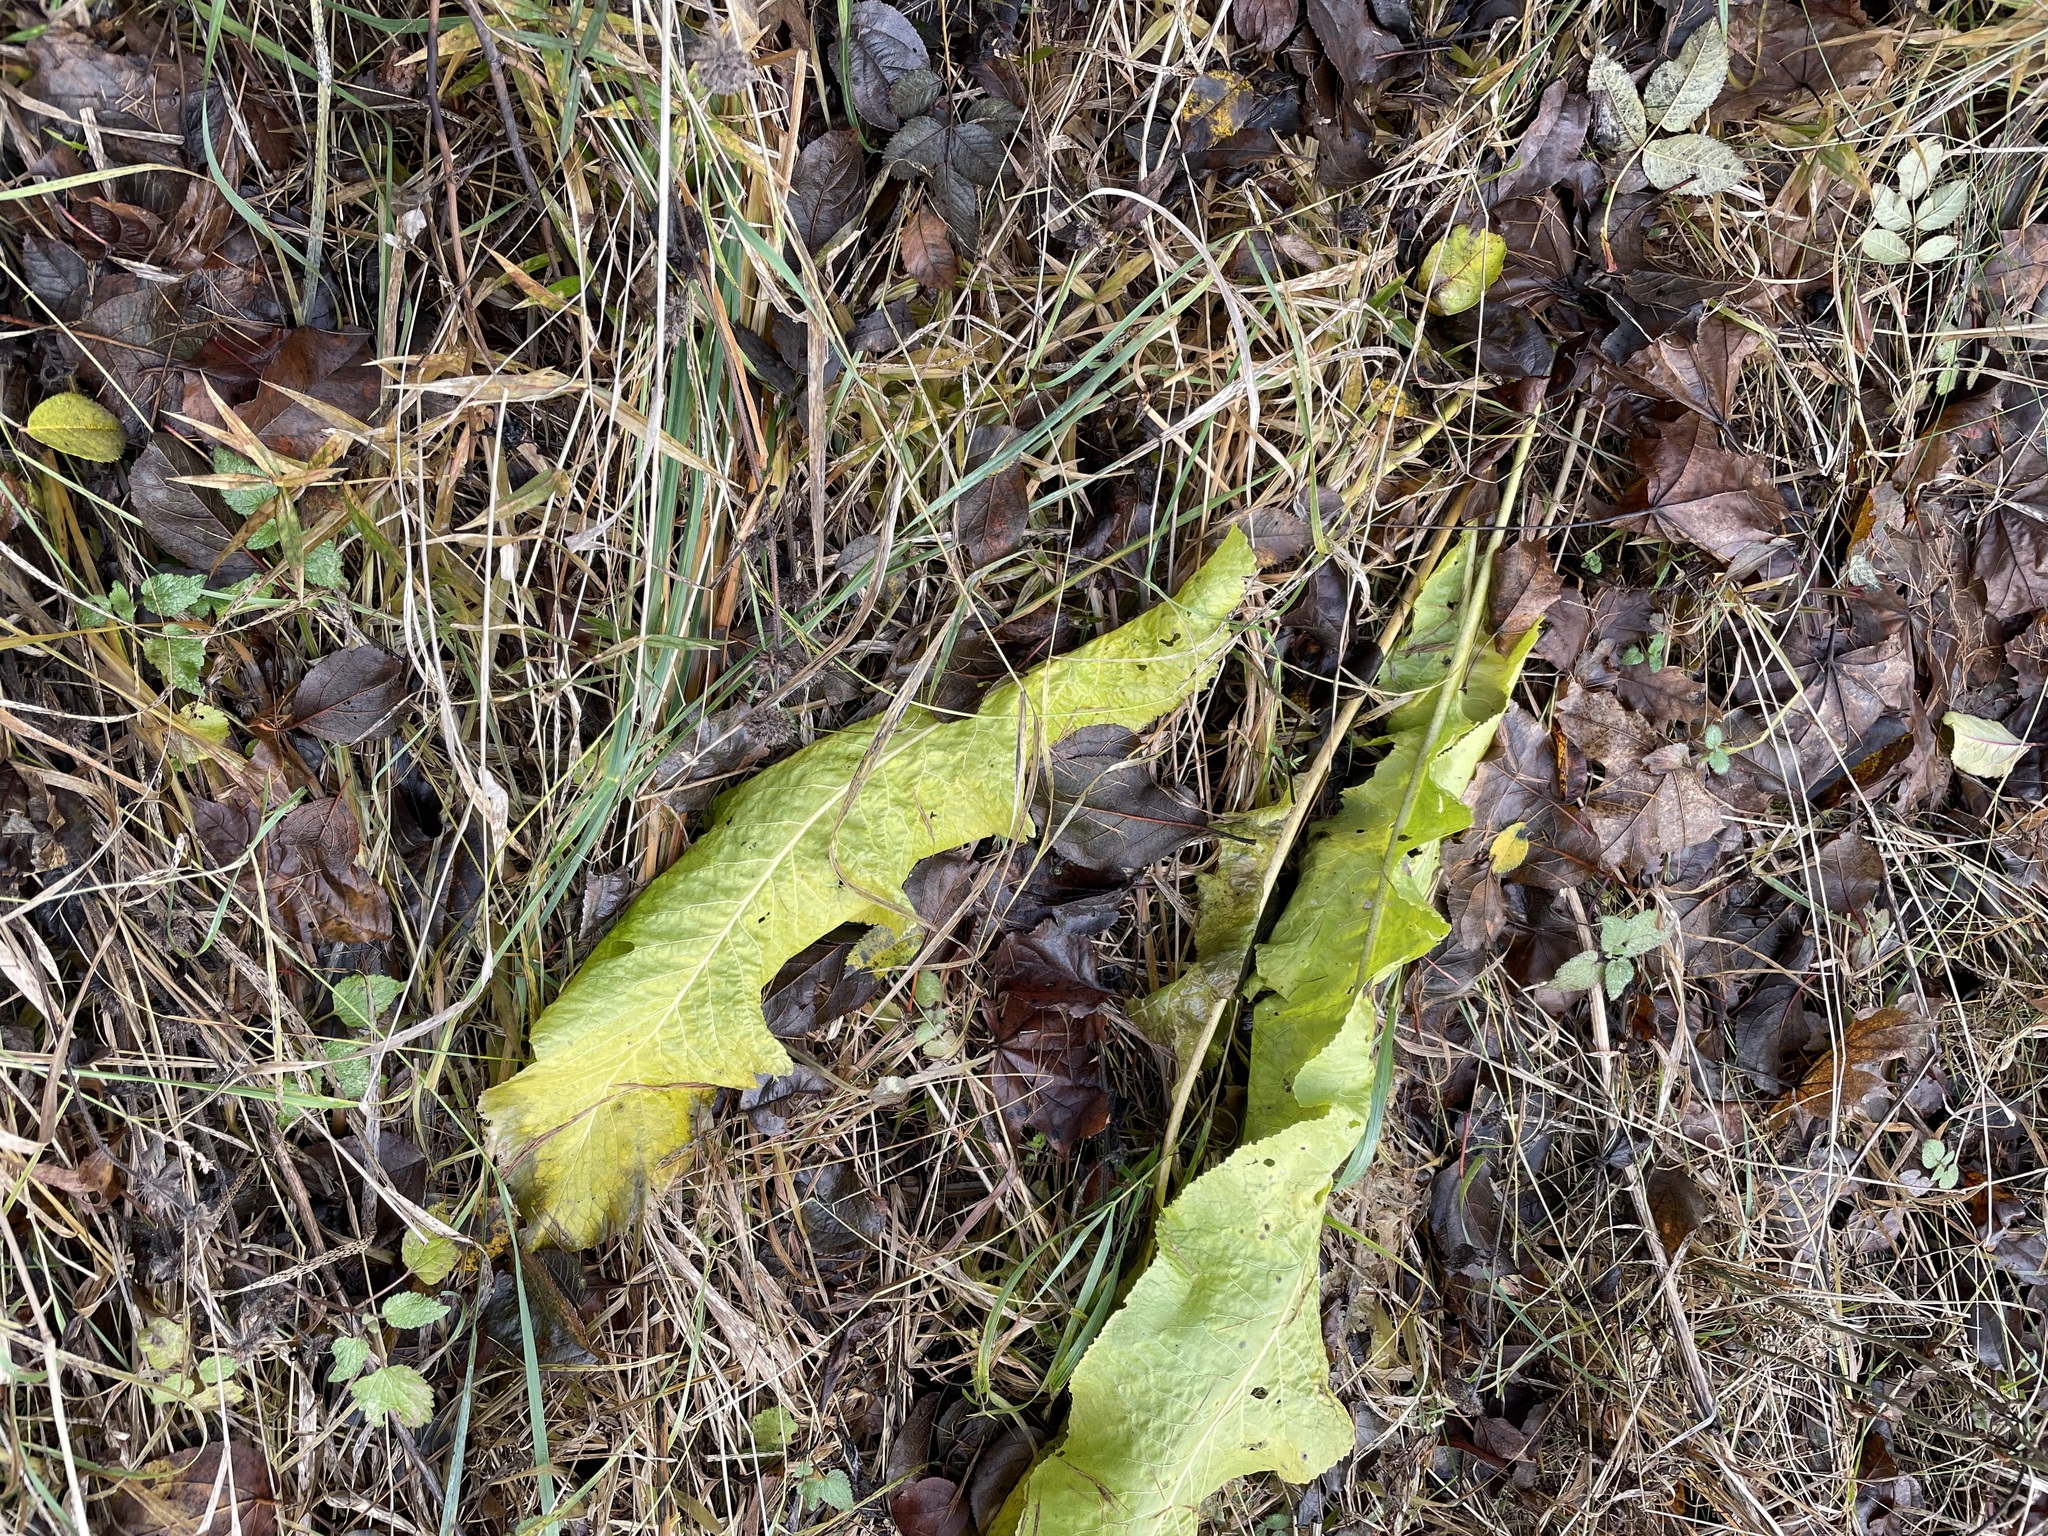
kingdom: Plantae
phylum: Tracheophyta
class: Magnoliopsida
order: Brassicales
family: Brassicaceae
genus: Armoracia
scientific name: Armoracia rusticana
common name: Horseradish
